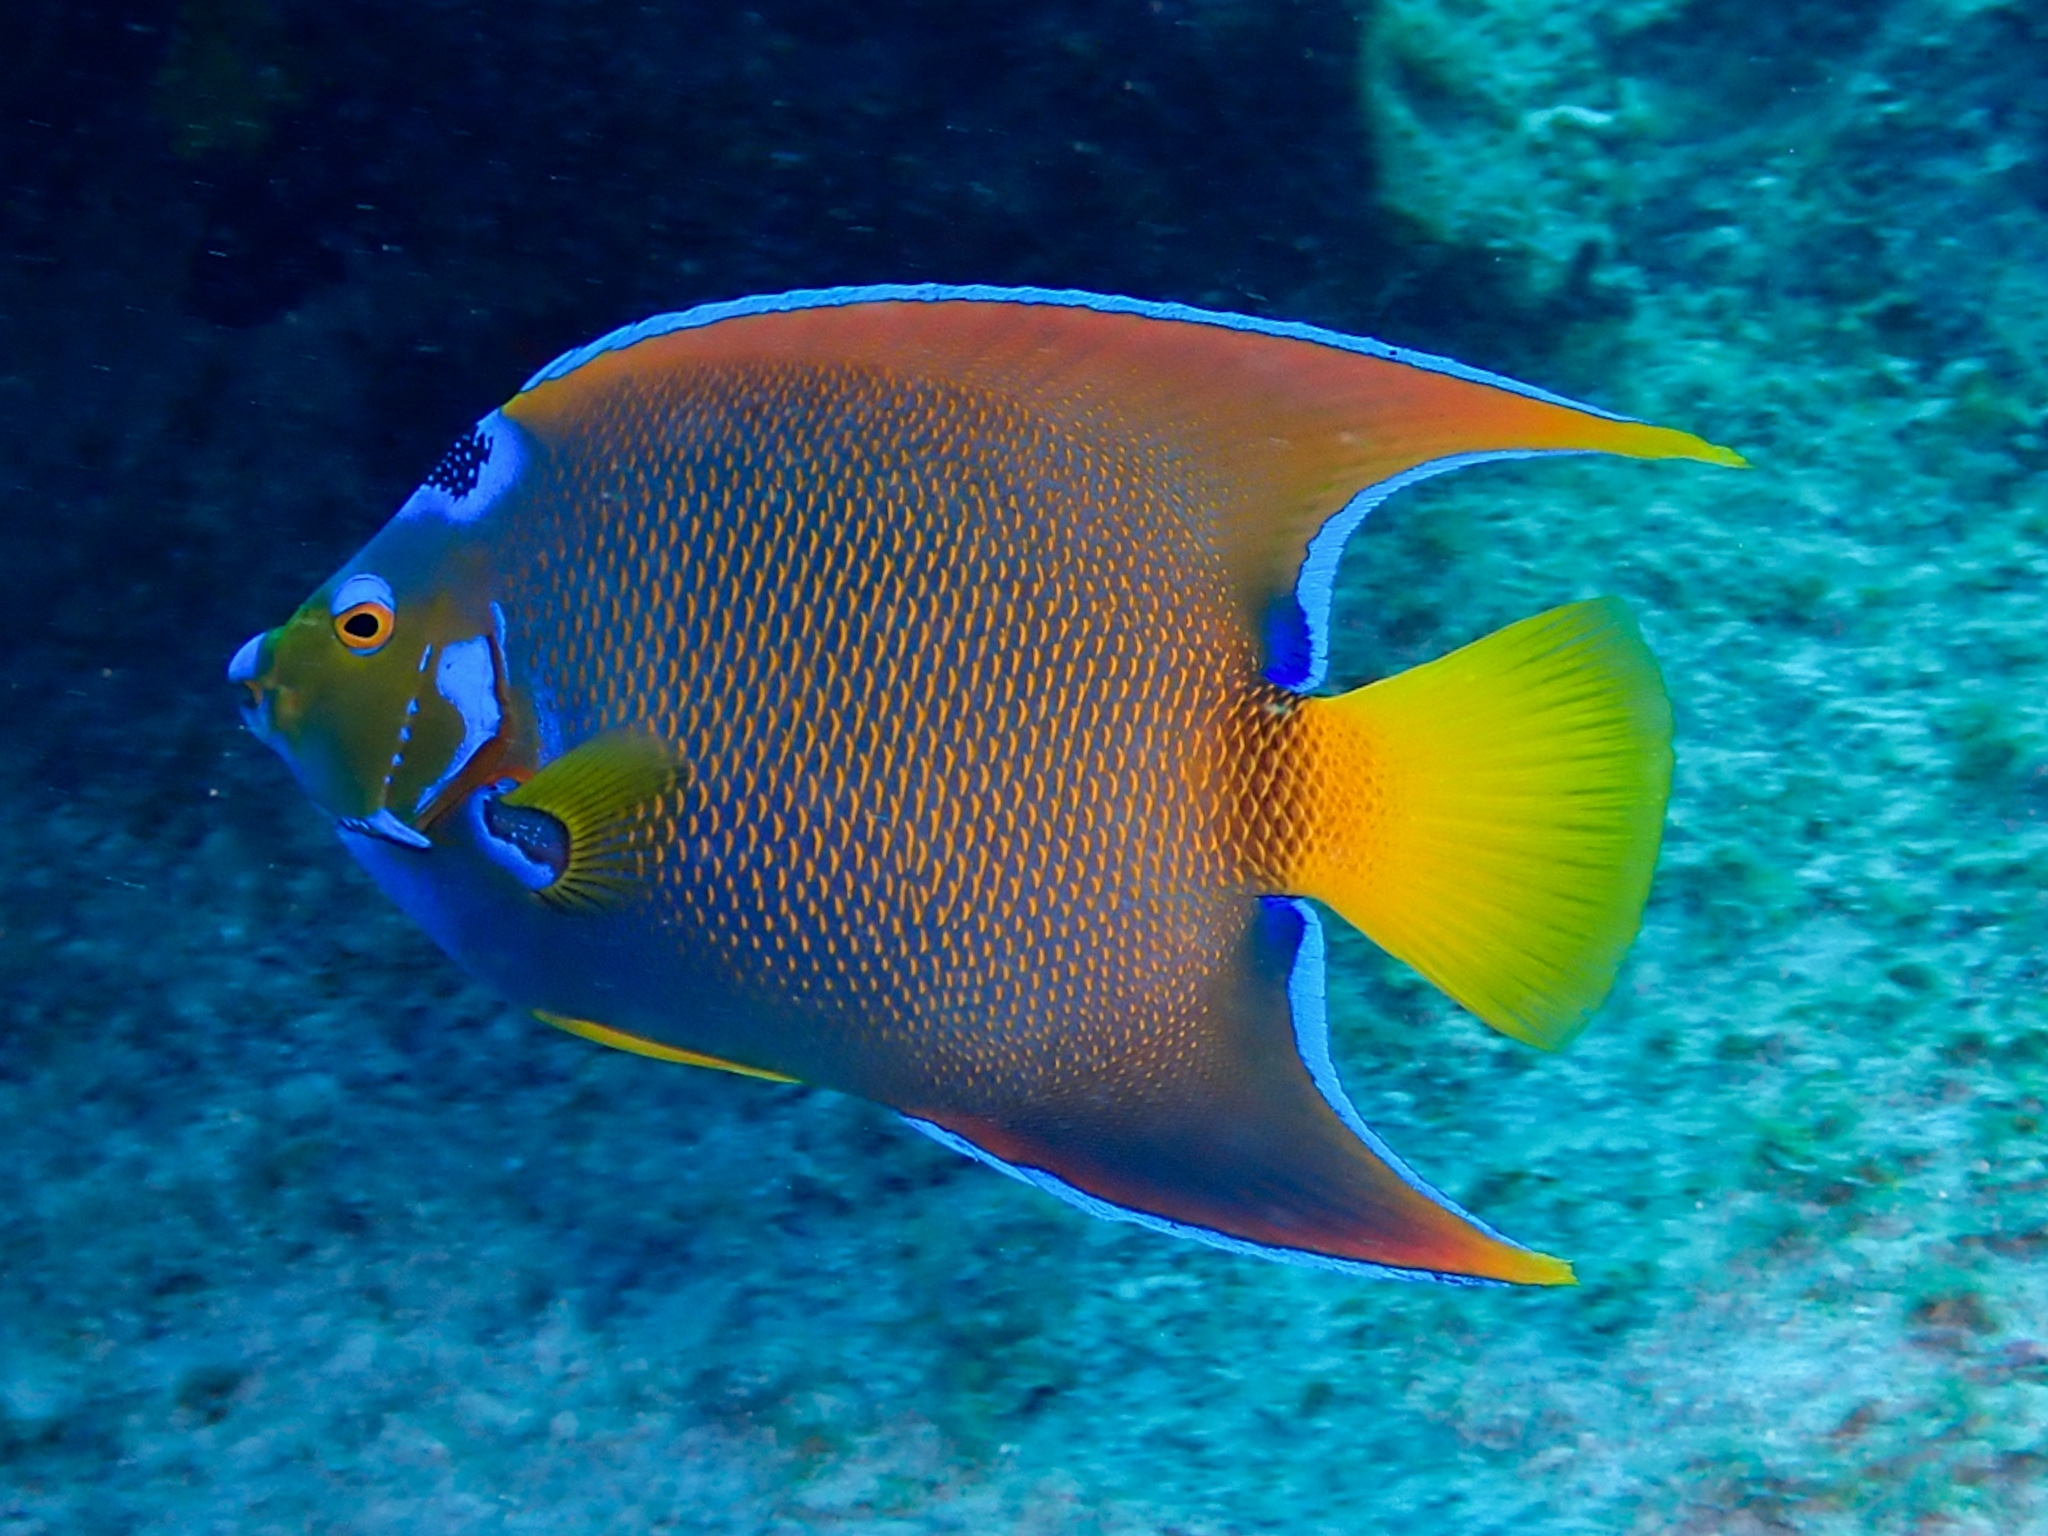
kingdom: Animalia
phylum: Chordata
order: Perciformes
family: Pomacanthidae
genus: Holacanthus
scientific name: Holacanthus ciliaris
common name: Queen angelfish
